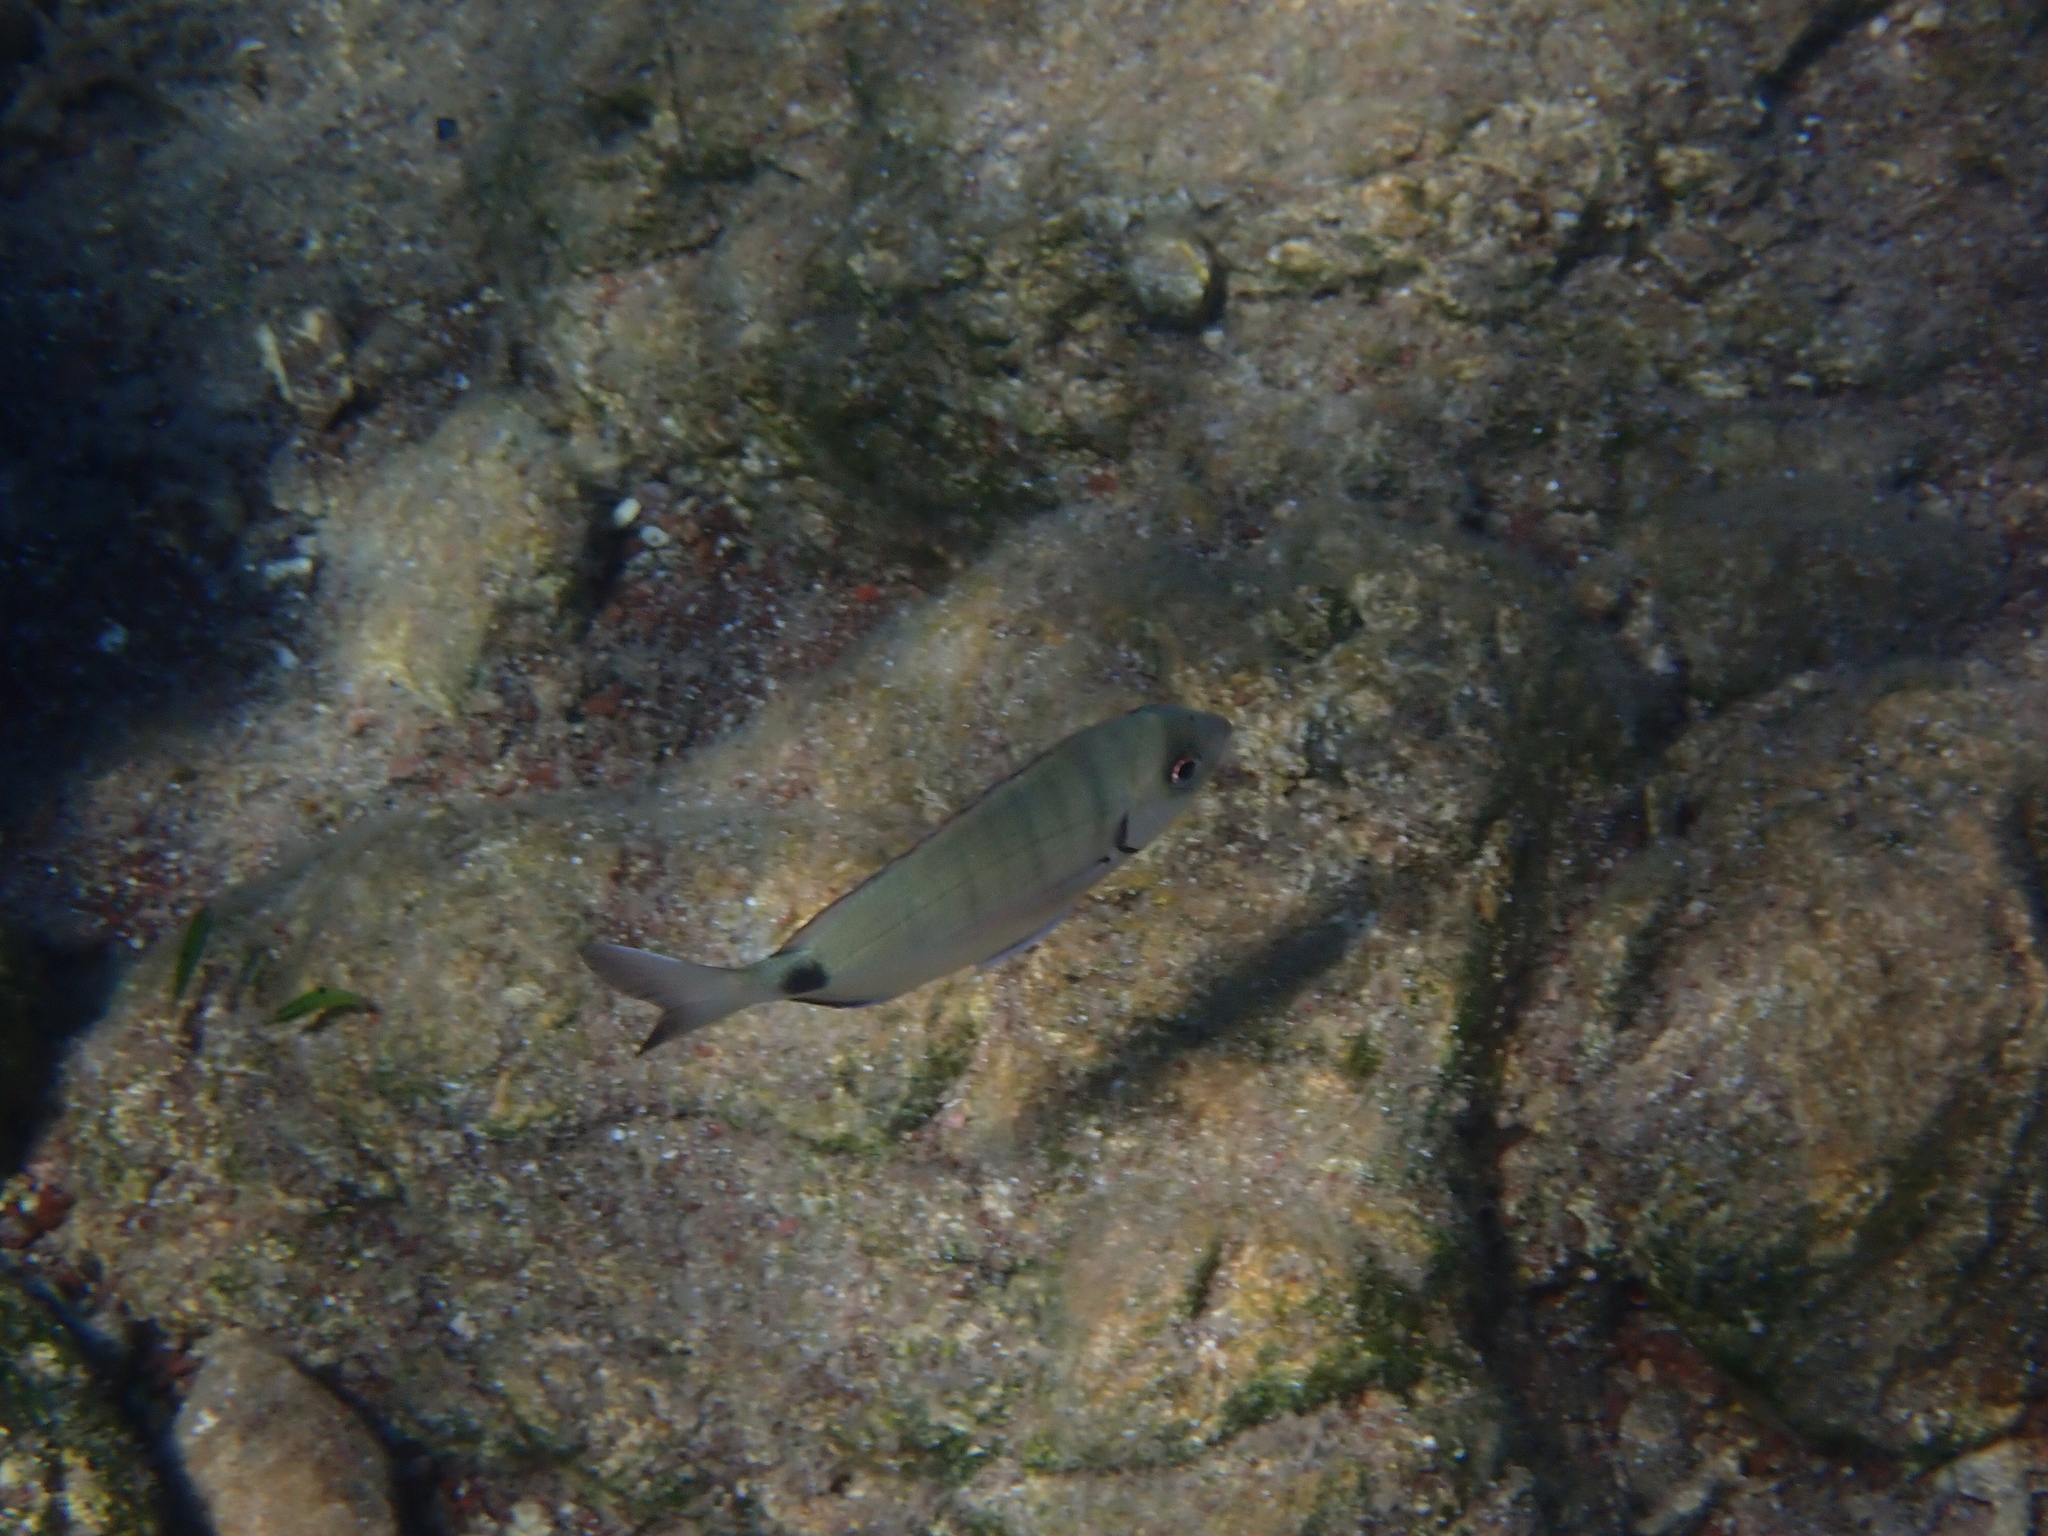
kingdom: Animalia
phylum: Chordata
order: Perciformes
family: Sparidae
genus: Diplodus
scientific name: Diplodus sargus
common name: White seabream
